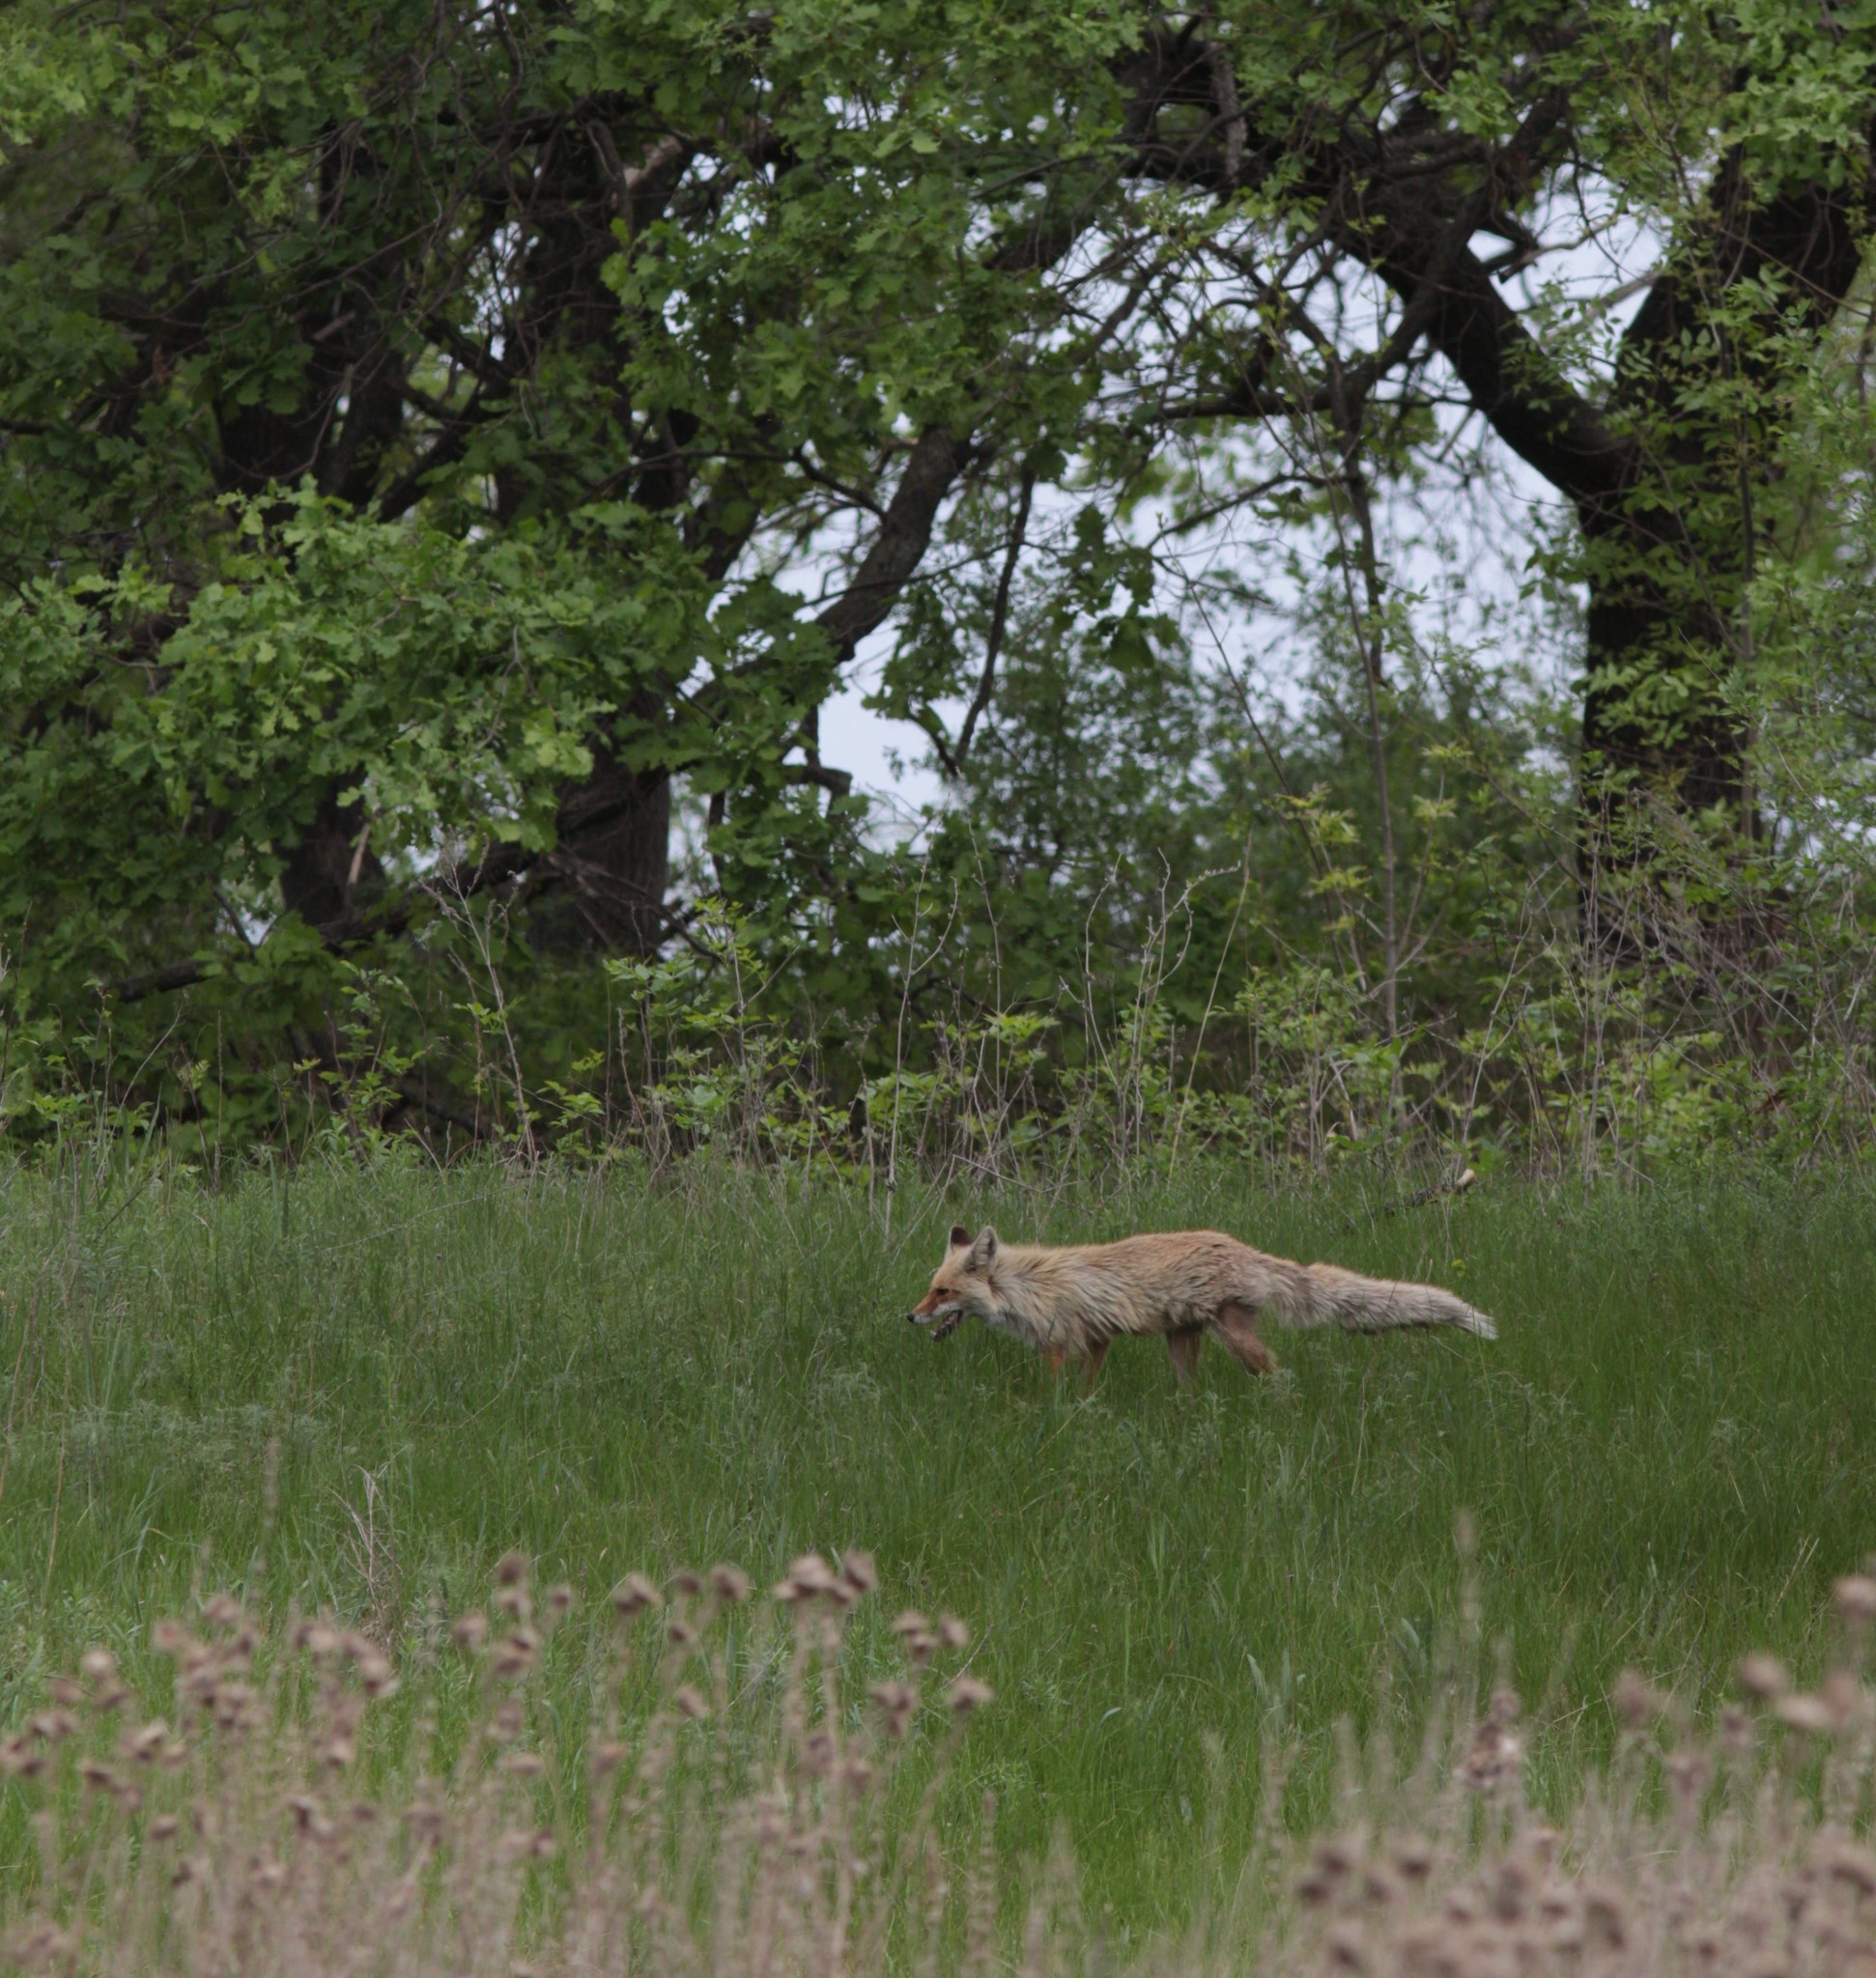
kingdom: Animalia
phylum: Chordata
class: Mammalia
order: Carnivora
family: Canidae
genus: Vulpes
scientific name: Vulpes vulpes
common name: Red fox
